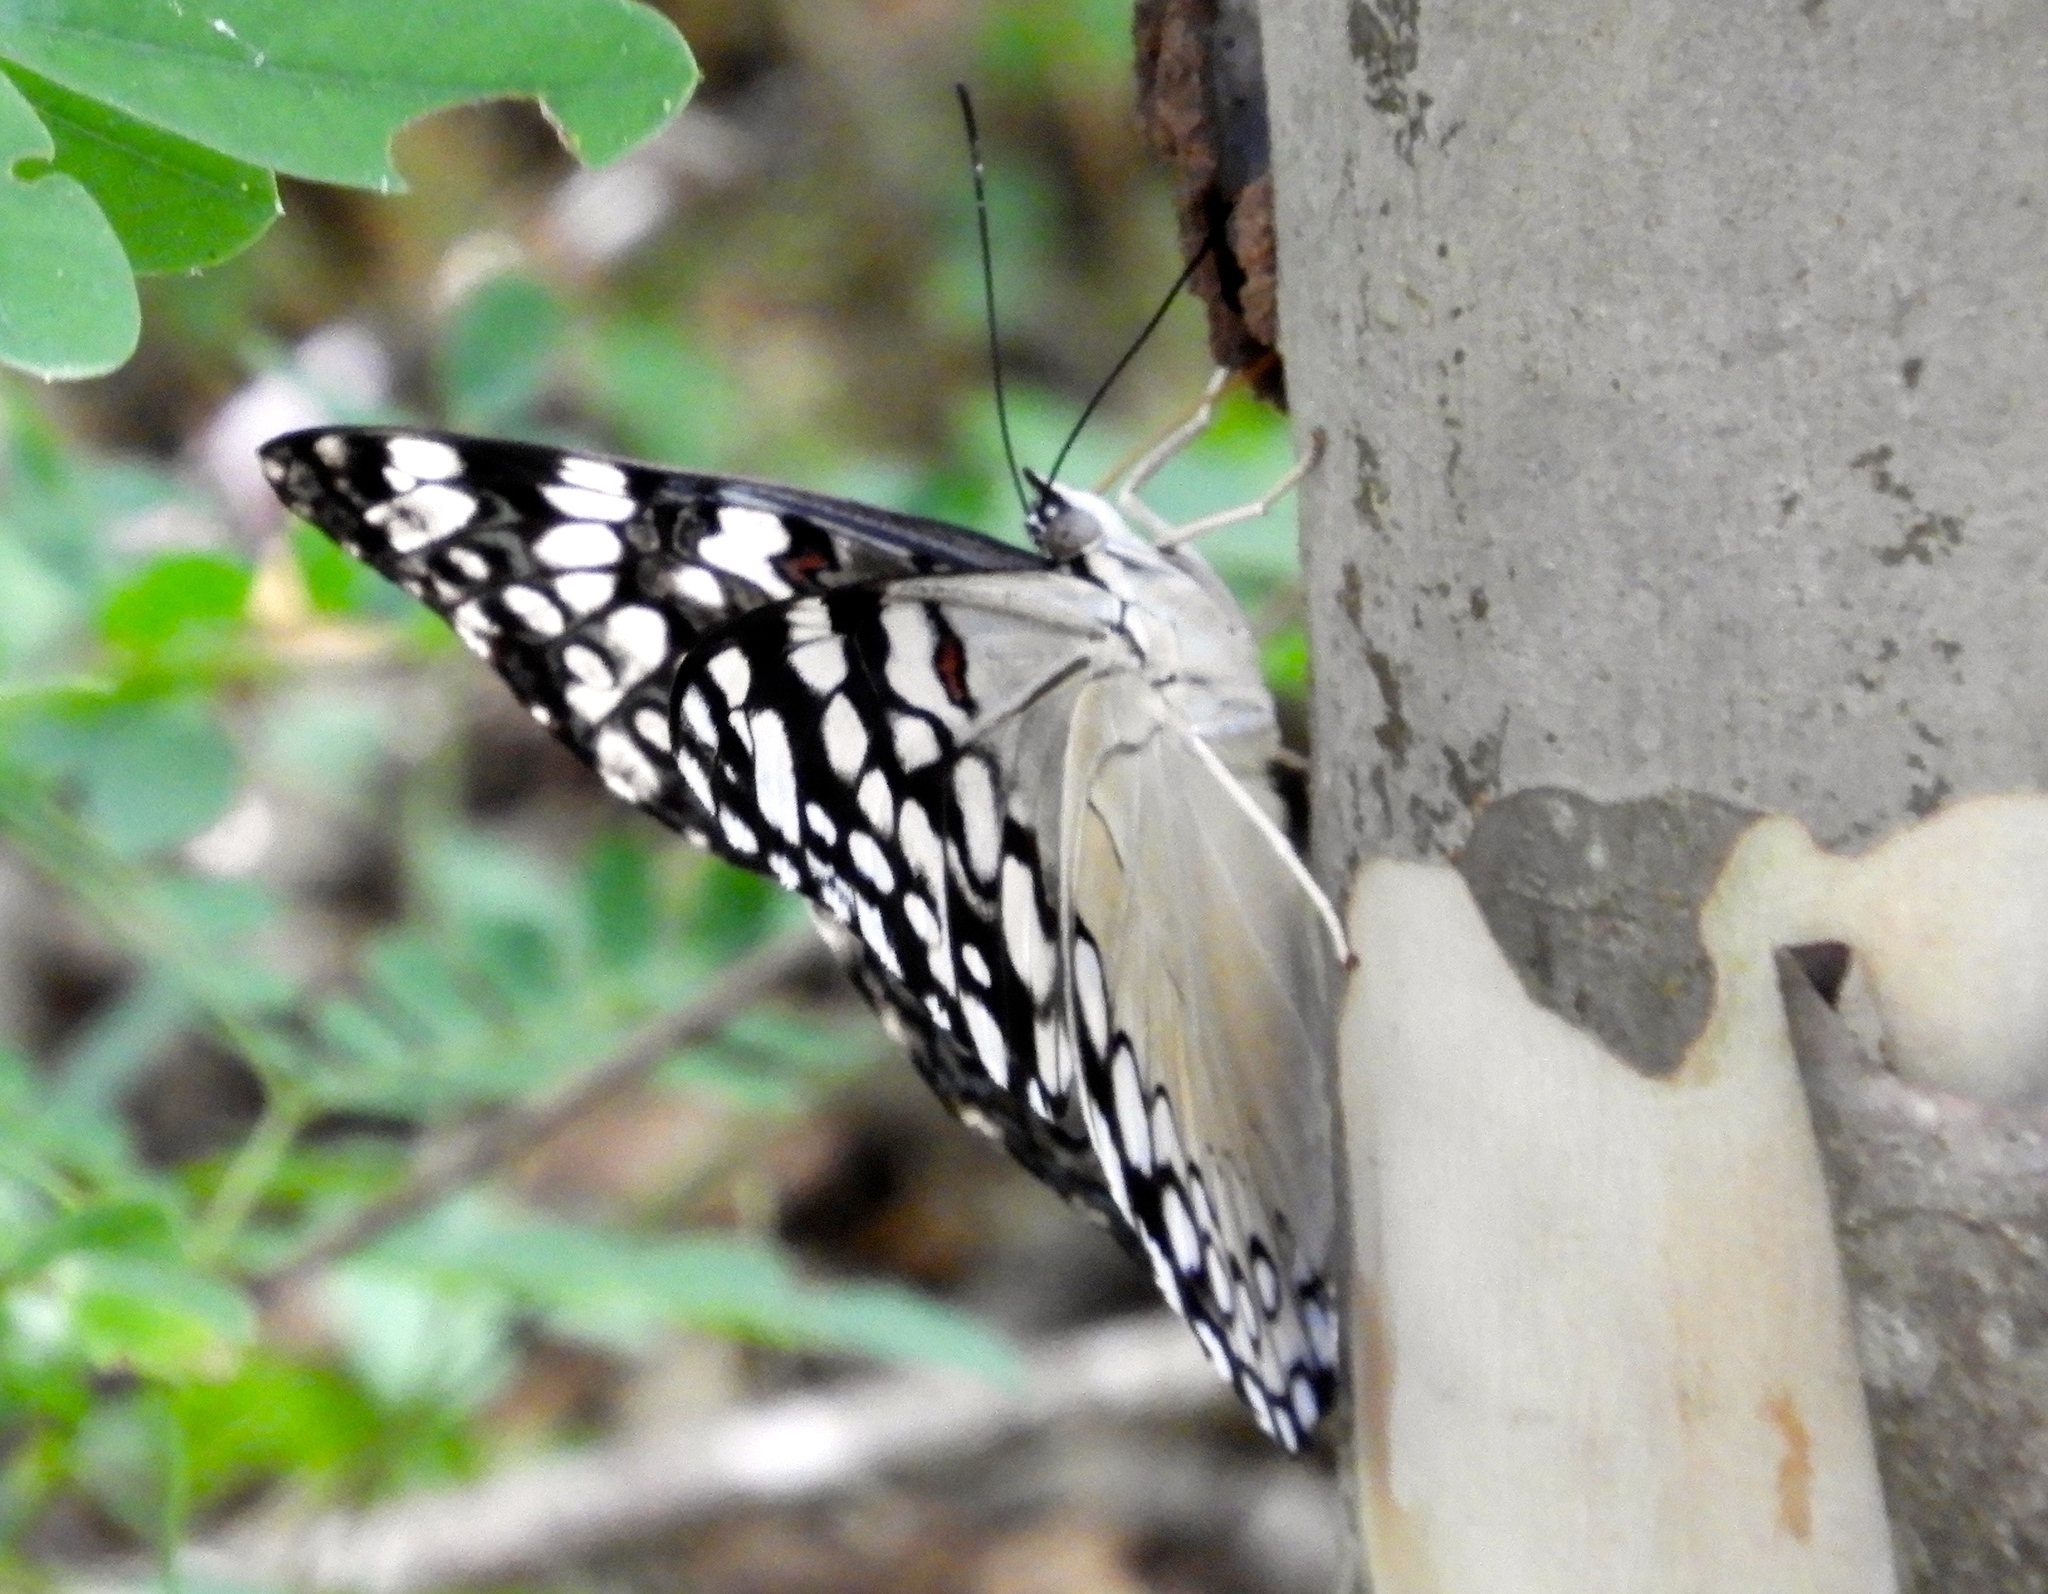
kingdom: Animalia
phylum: Arthropoda
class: Insecta
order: Lepidoptera
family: Nymphalidae
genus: Hamadryas
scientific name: Hamadryas guatemalena
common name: Guatemalan cracker
